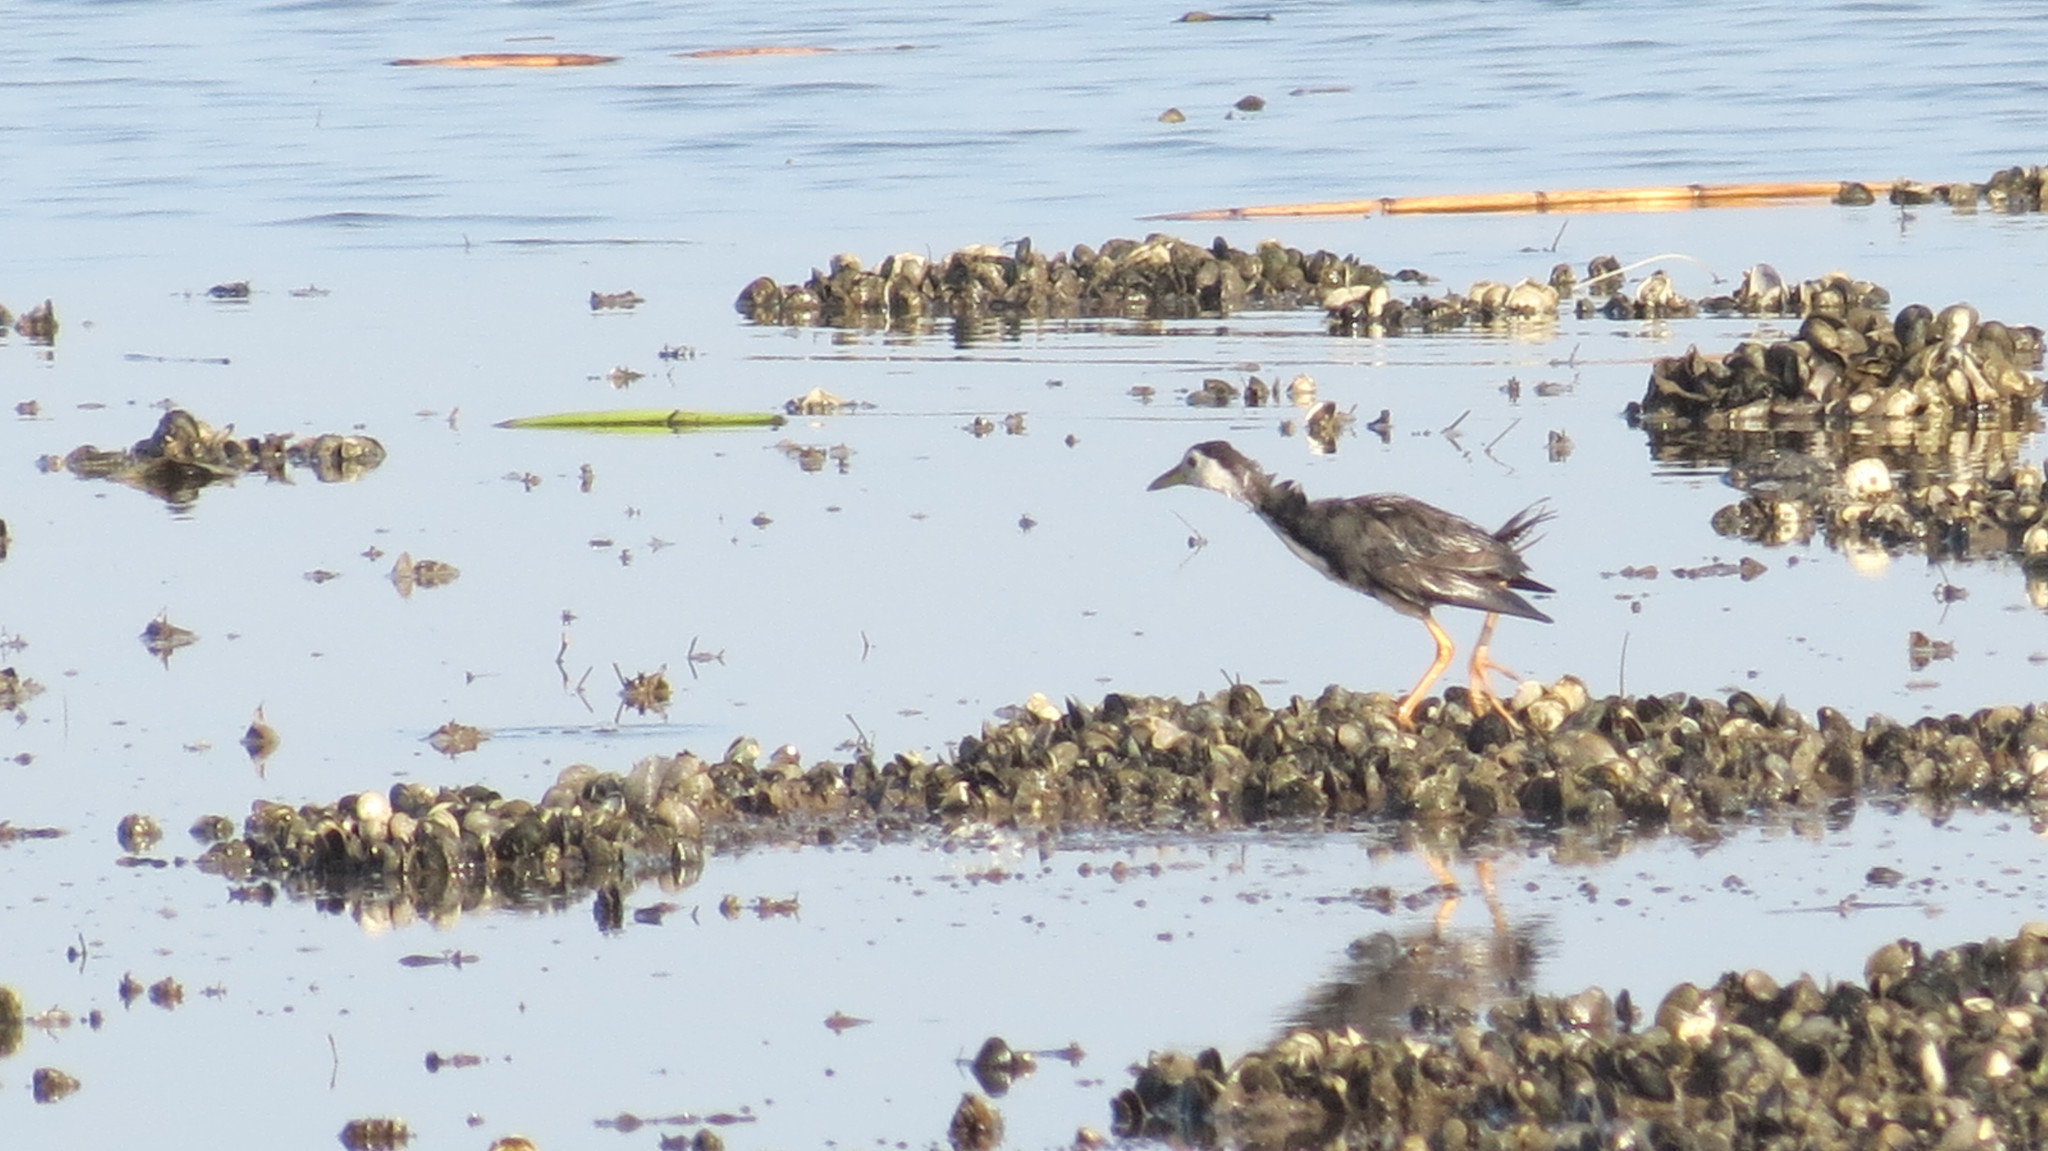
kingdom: Animalia
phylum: Chordata
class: Aves
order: Gruiformes
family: Rallidae
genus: Amaurornis
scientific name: Amaurornis phoenicurus
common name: White-breasted waterhen
